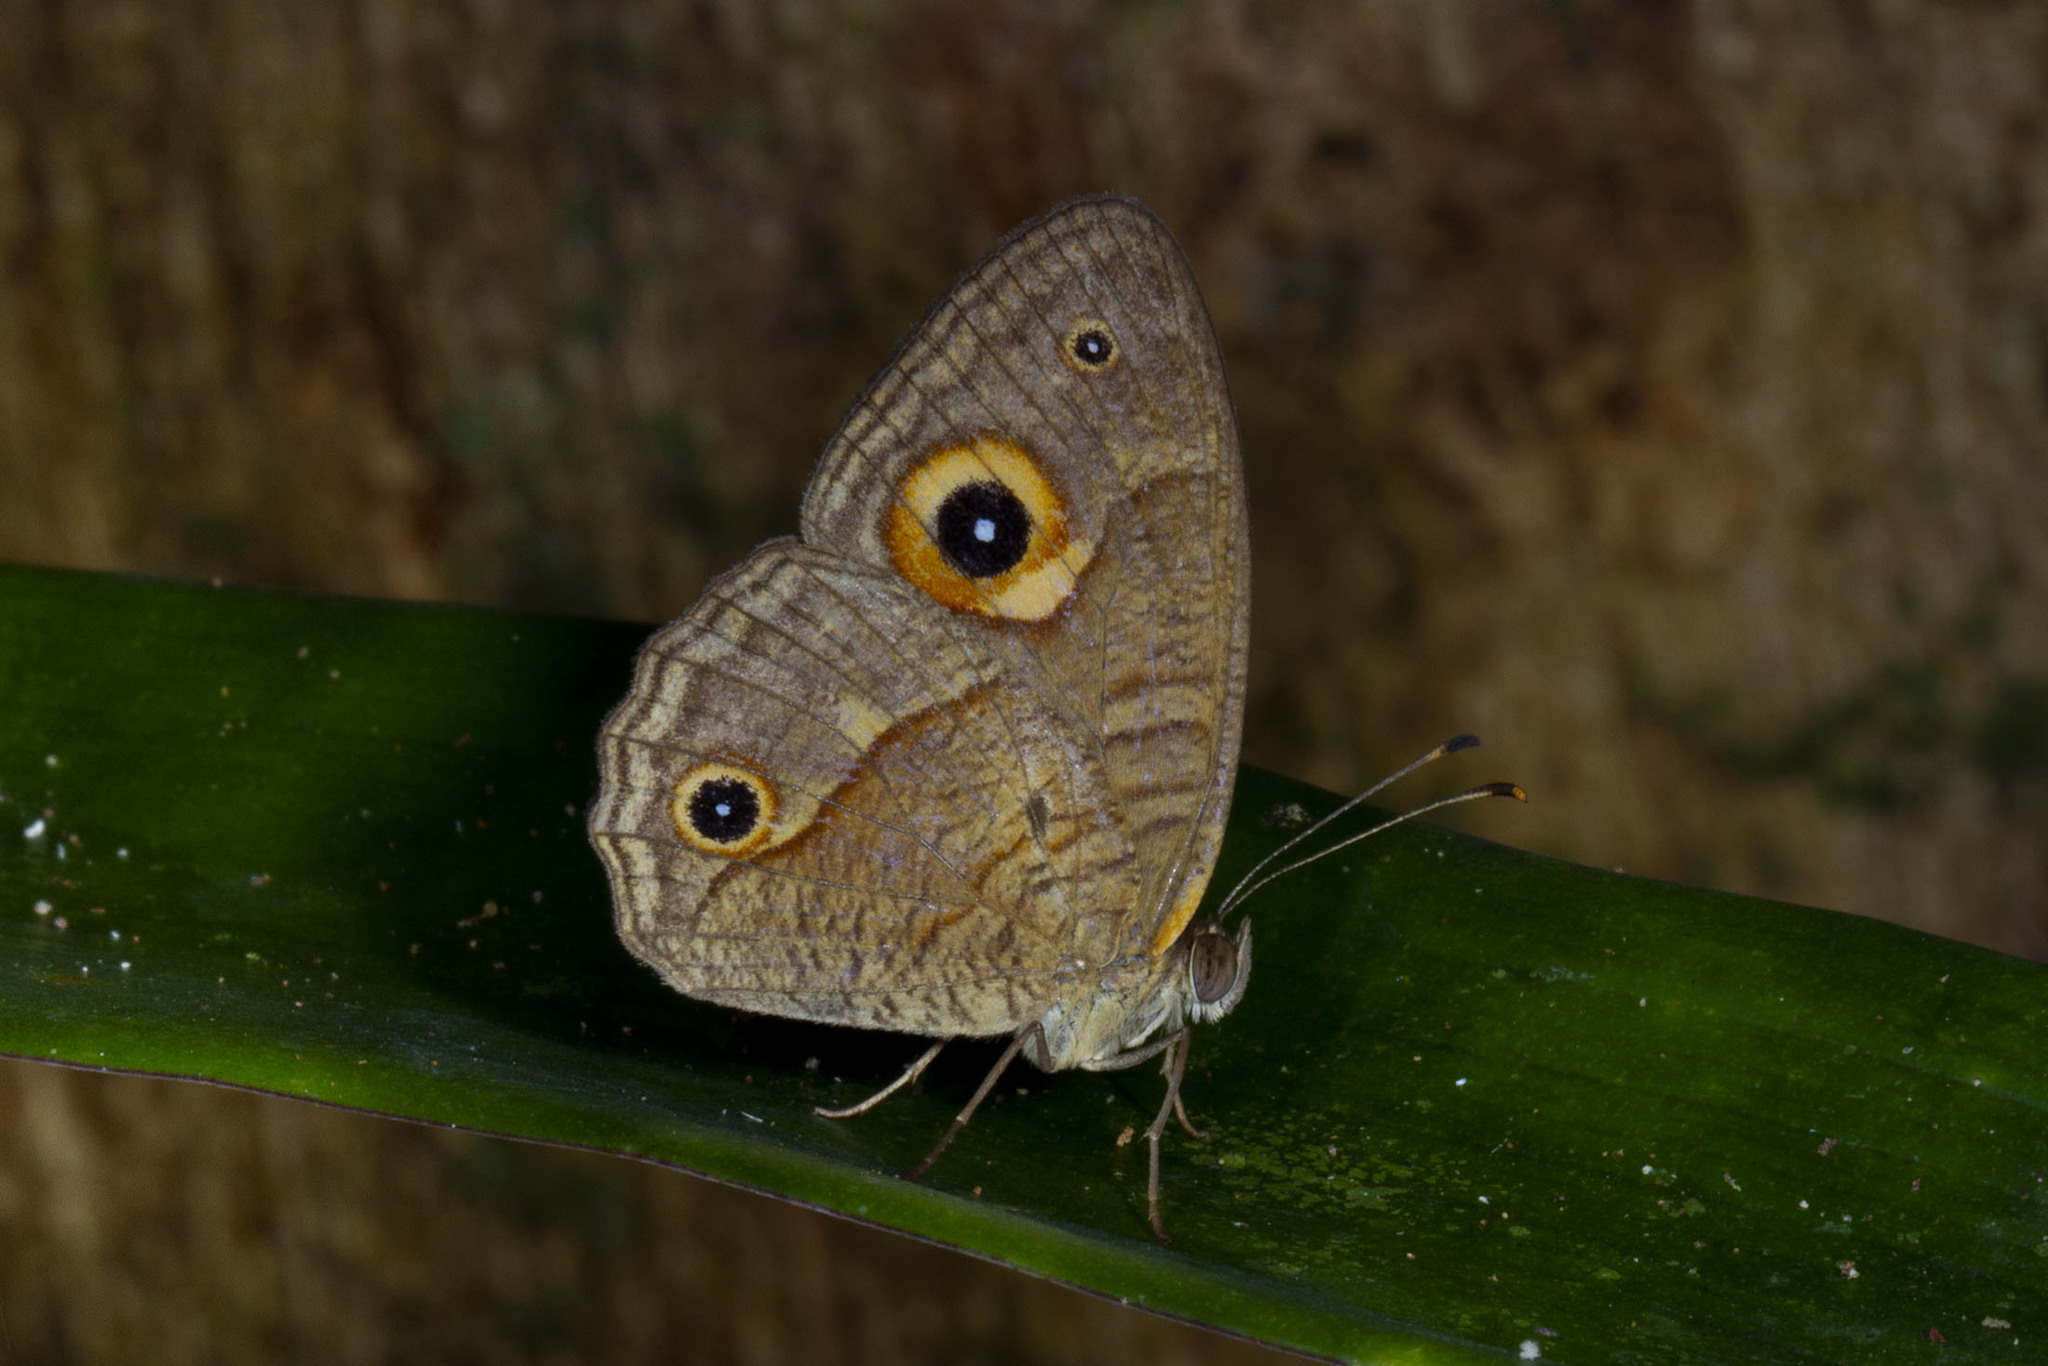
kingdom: Animalia
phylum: Arthropoda
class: Insecta
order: Lepidoptera
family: Nymphalidae
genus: Heteropsis
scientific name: Heteropsis pauper
